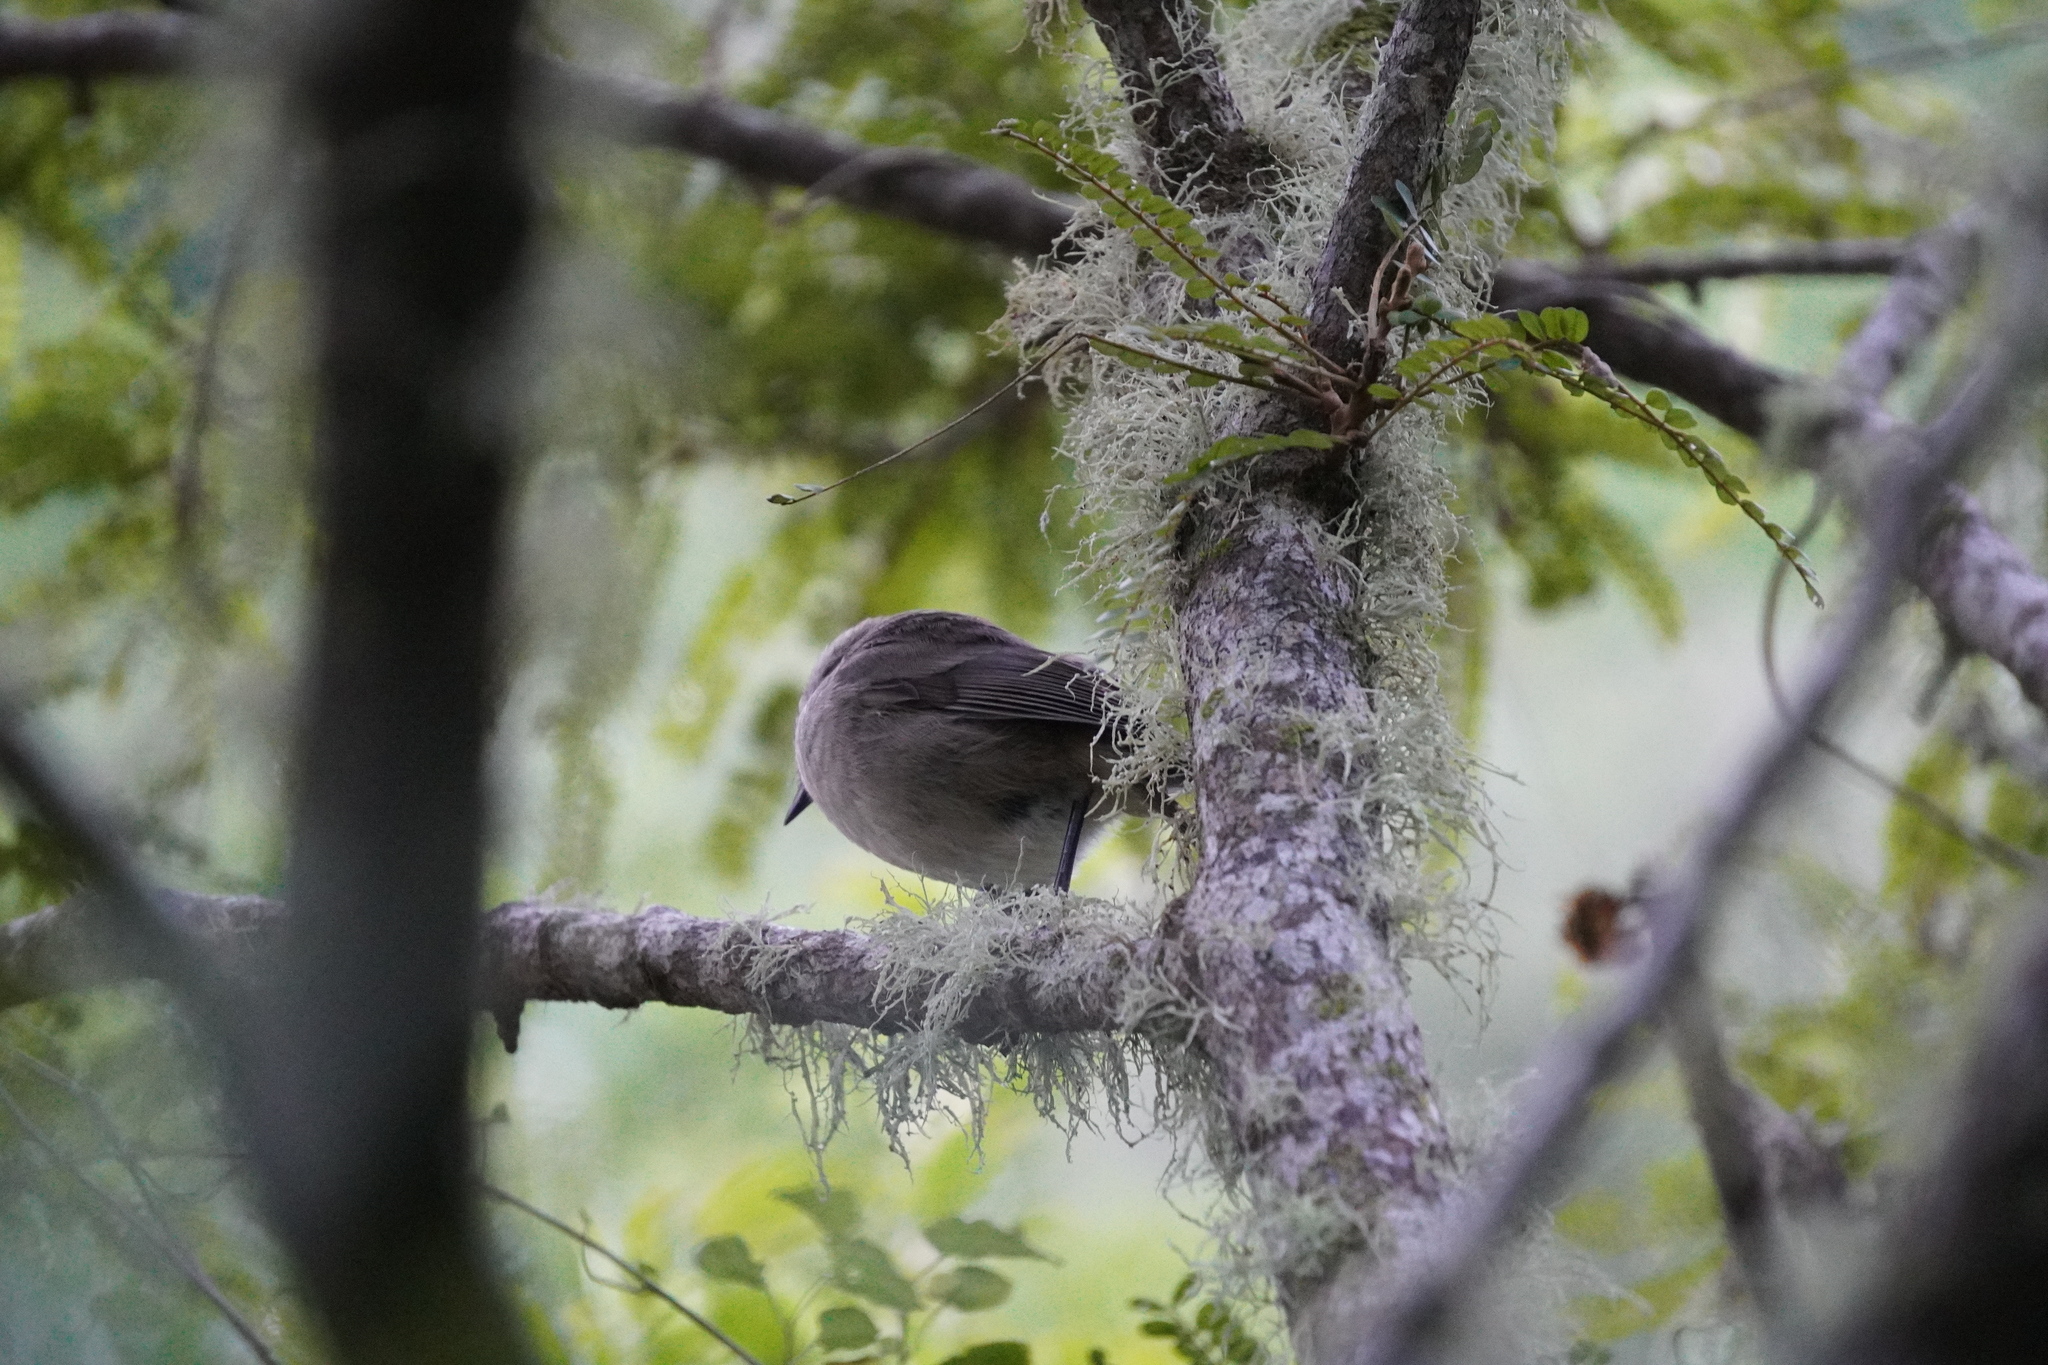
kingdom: Animalia
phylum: Chordata
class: Aves
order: Passeriformes
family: Acanthizidae
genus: Gerygone
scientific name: Gerygone igata
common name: Grey gerygone
